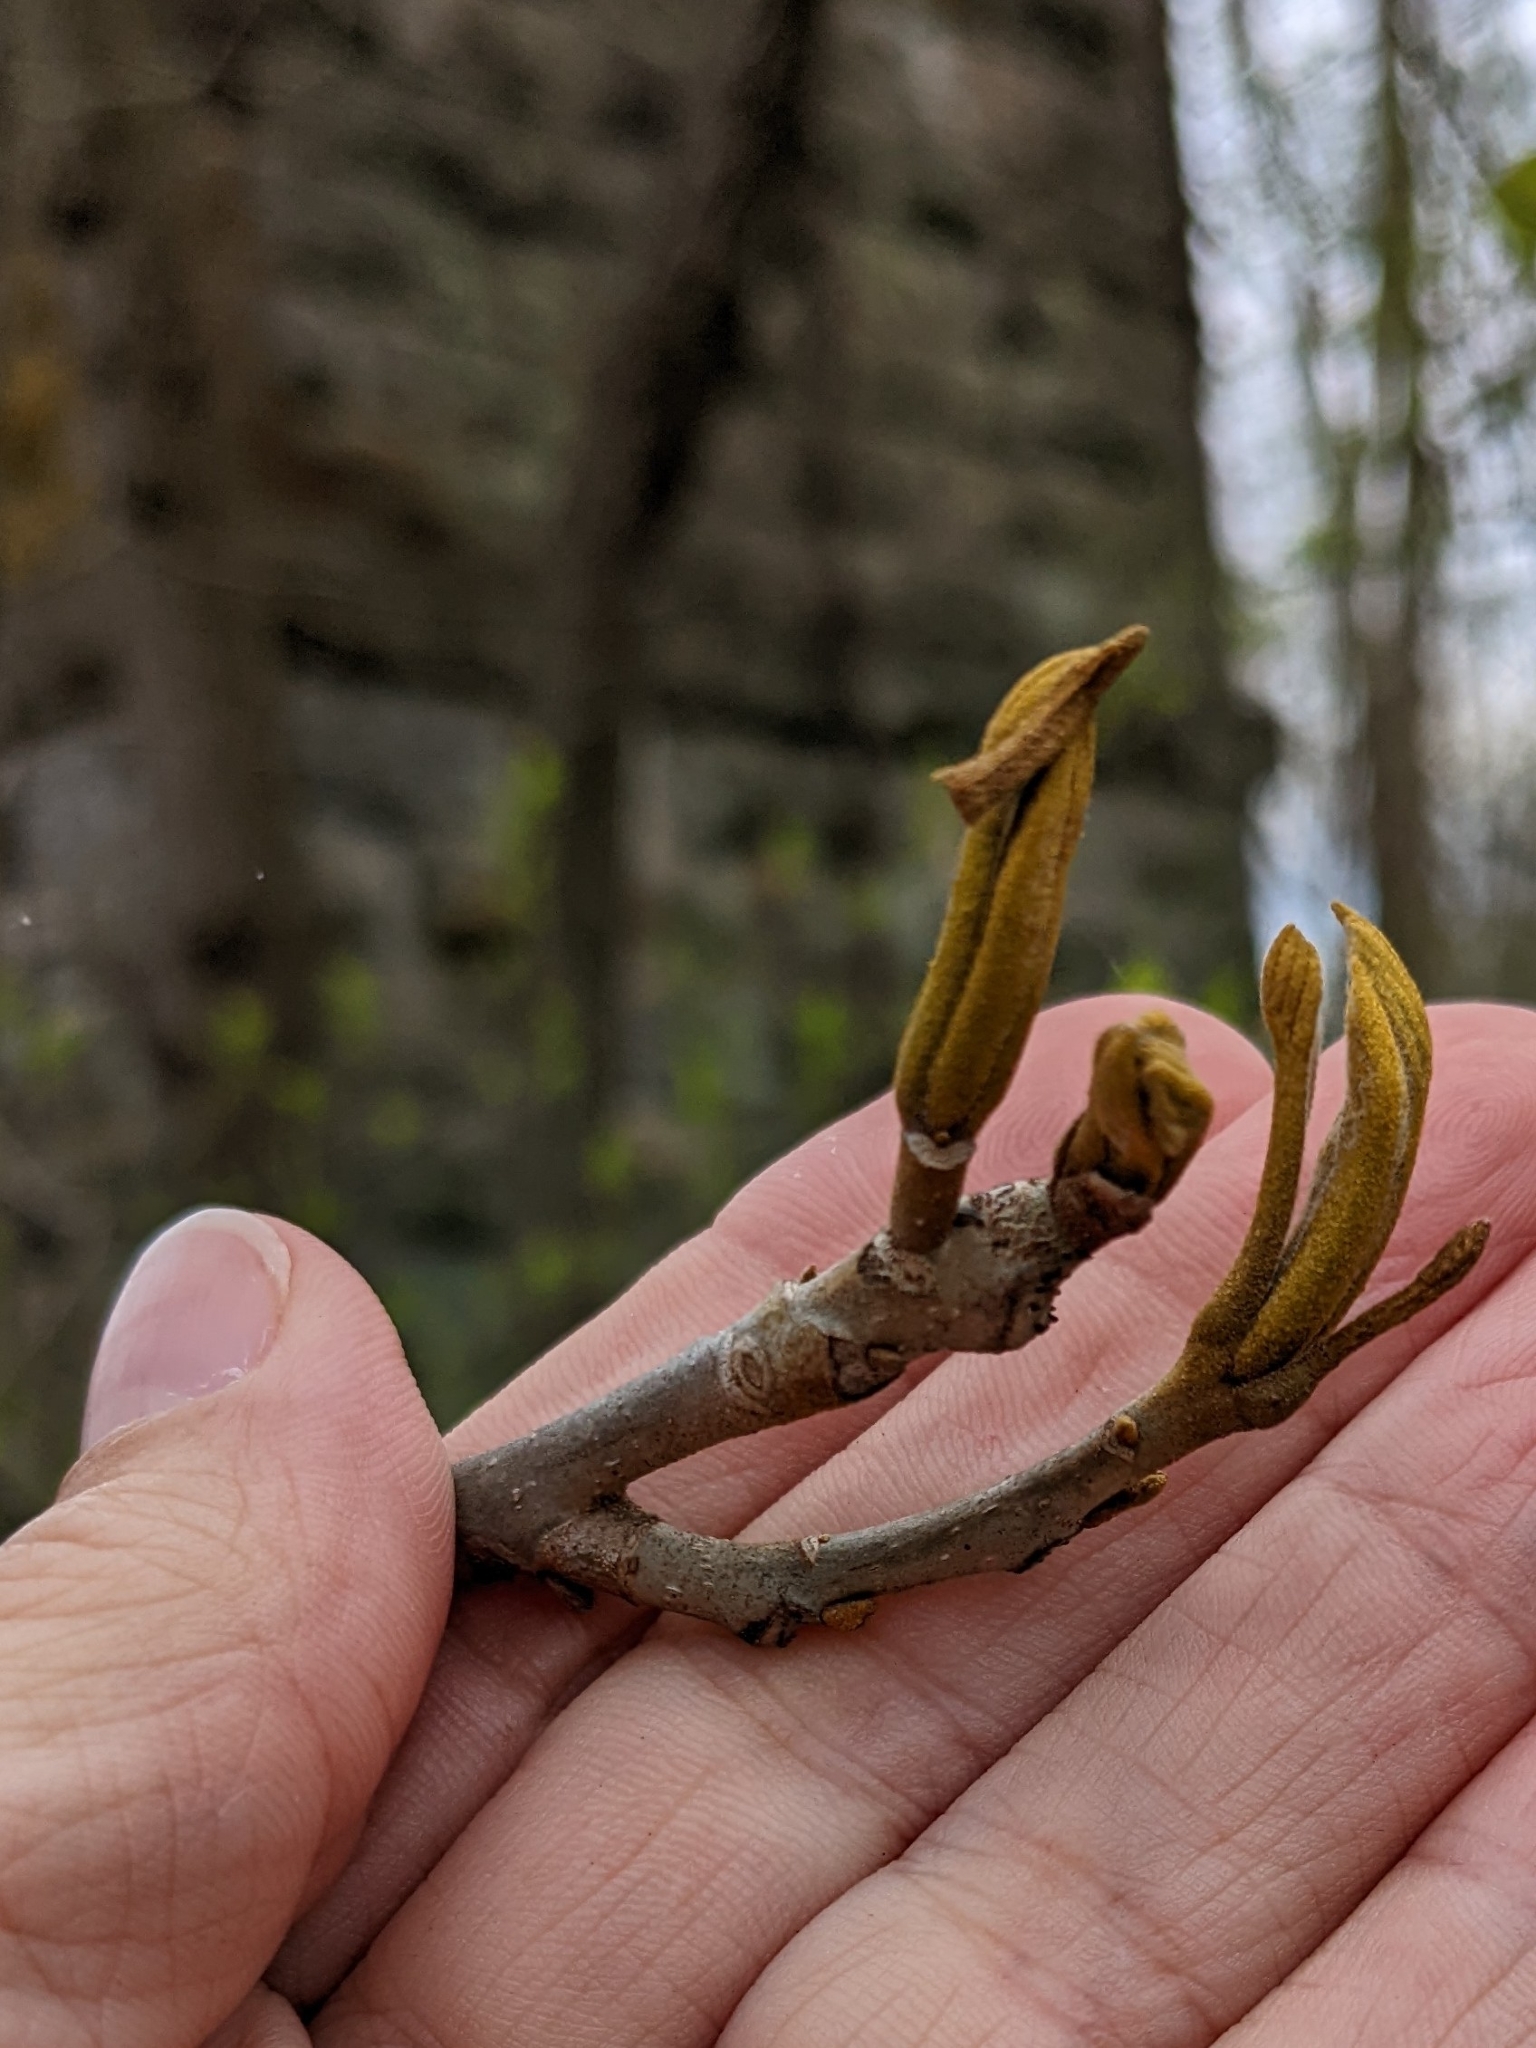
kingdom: Plantae
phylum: Tracheophyta
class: Magnoliopsida
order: Fagales
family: Juglandaceae
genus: Carya
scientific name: Carya cordiformis
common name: Bitternut hickory
